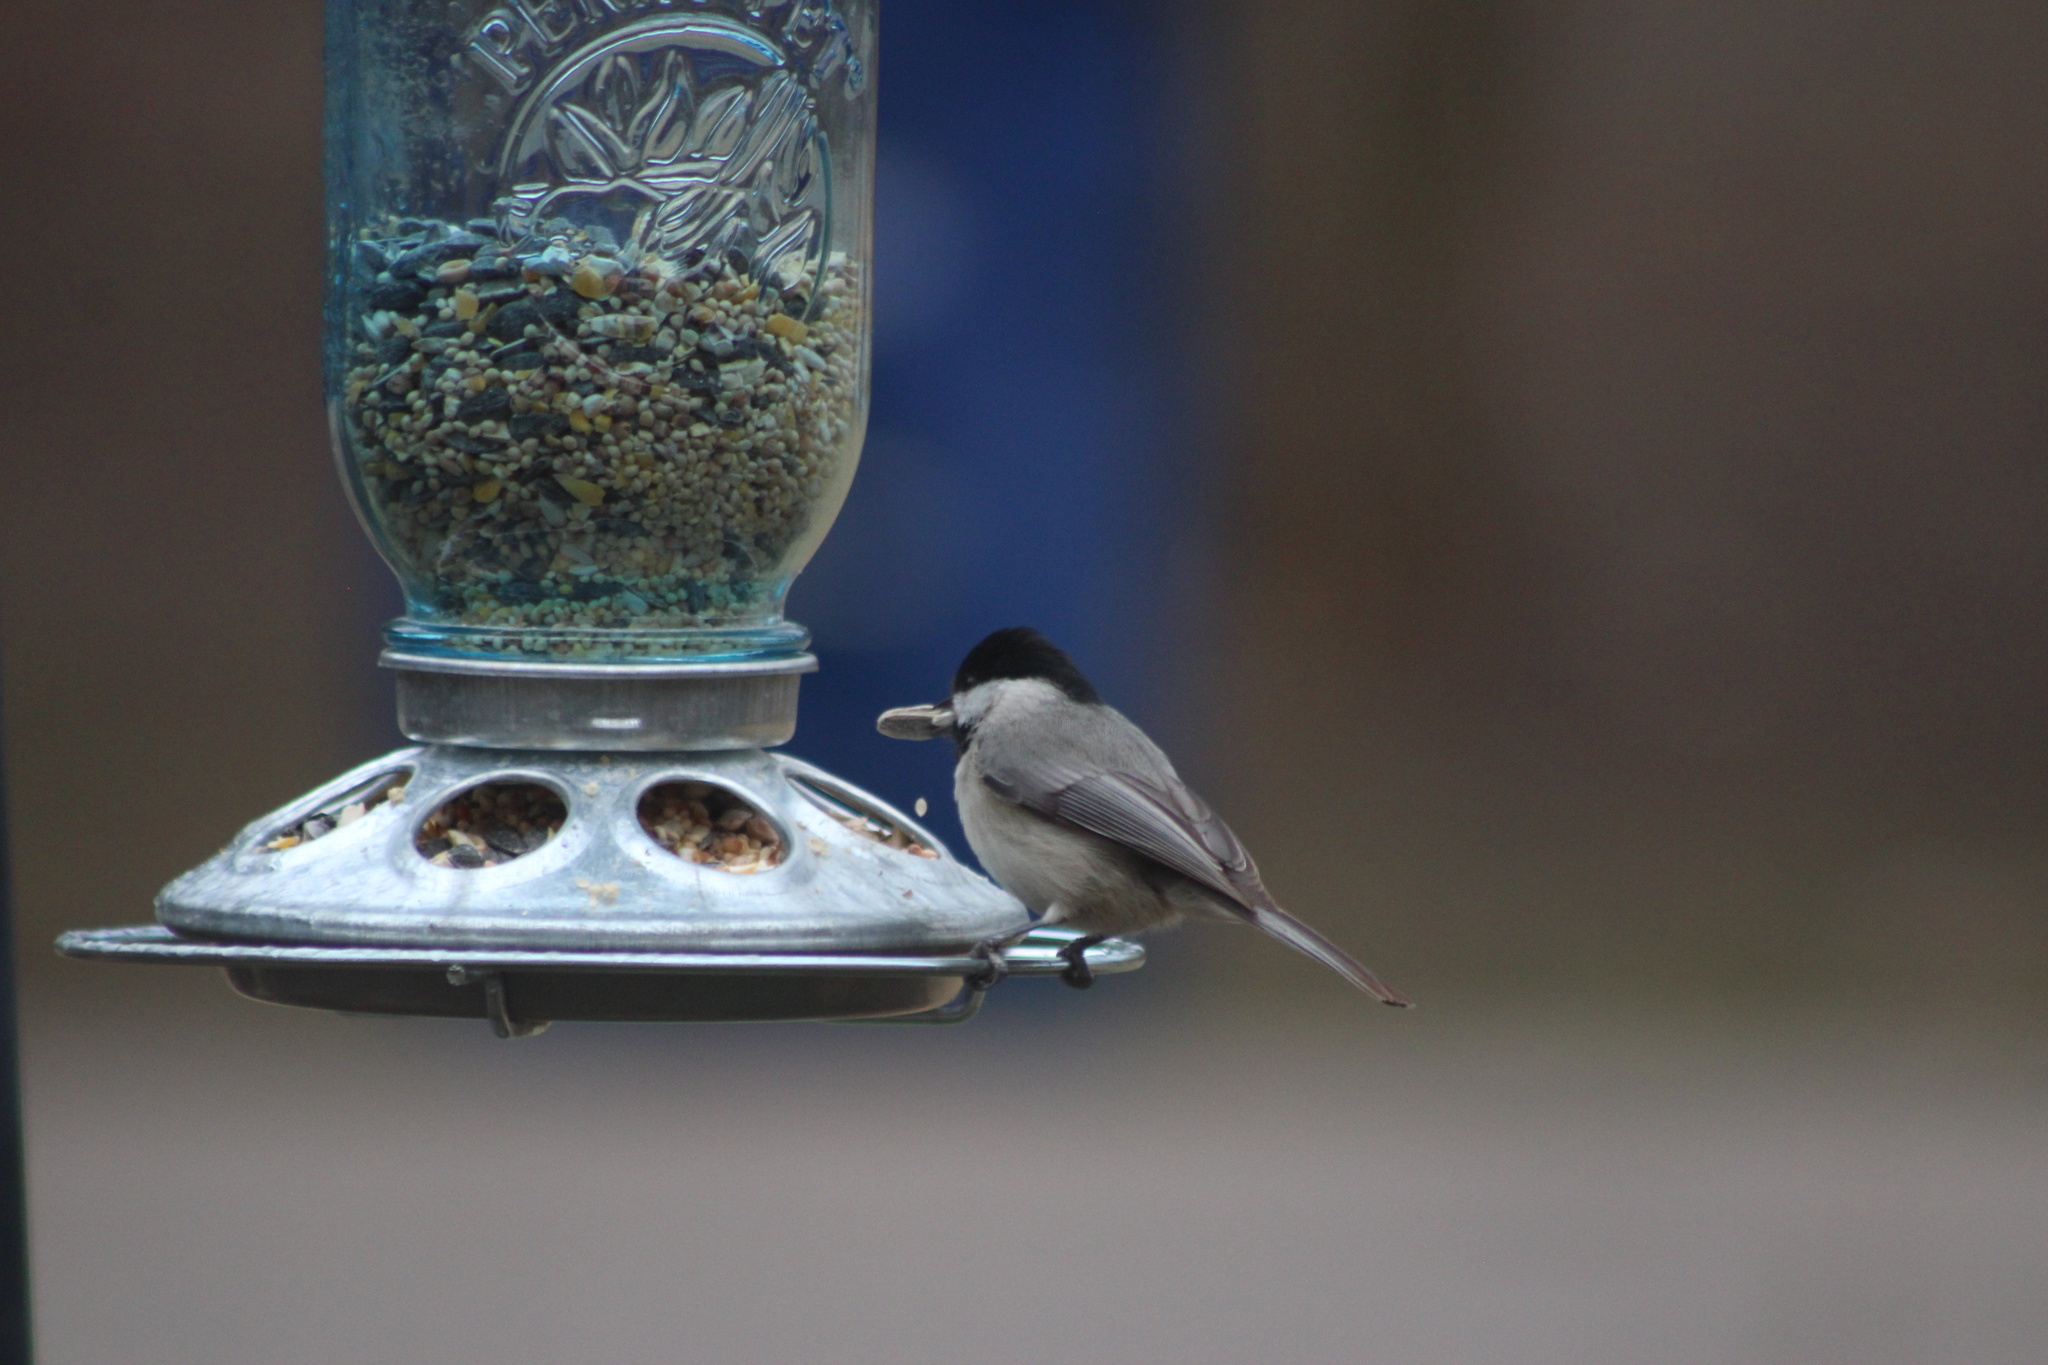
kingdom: Animalia
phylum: Chordata
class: Aves
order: Passeriformes
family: Paridae
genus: Poecile
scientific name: Poecile carolinensis
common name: Carolina chickadee
